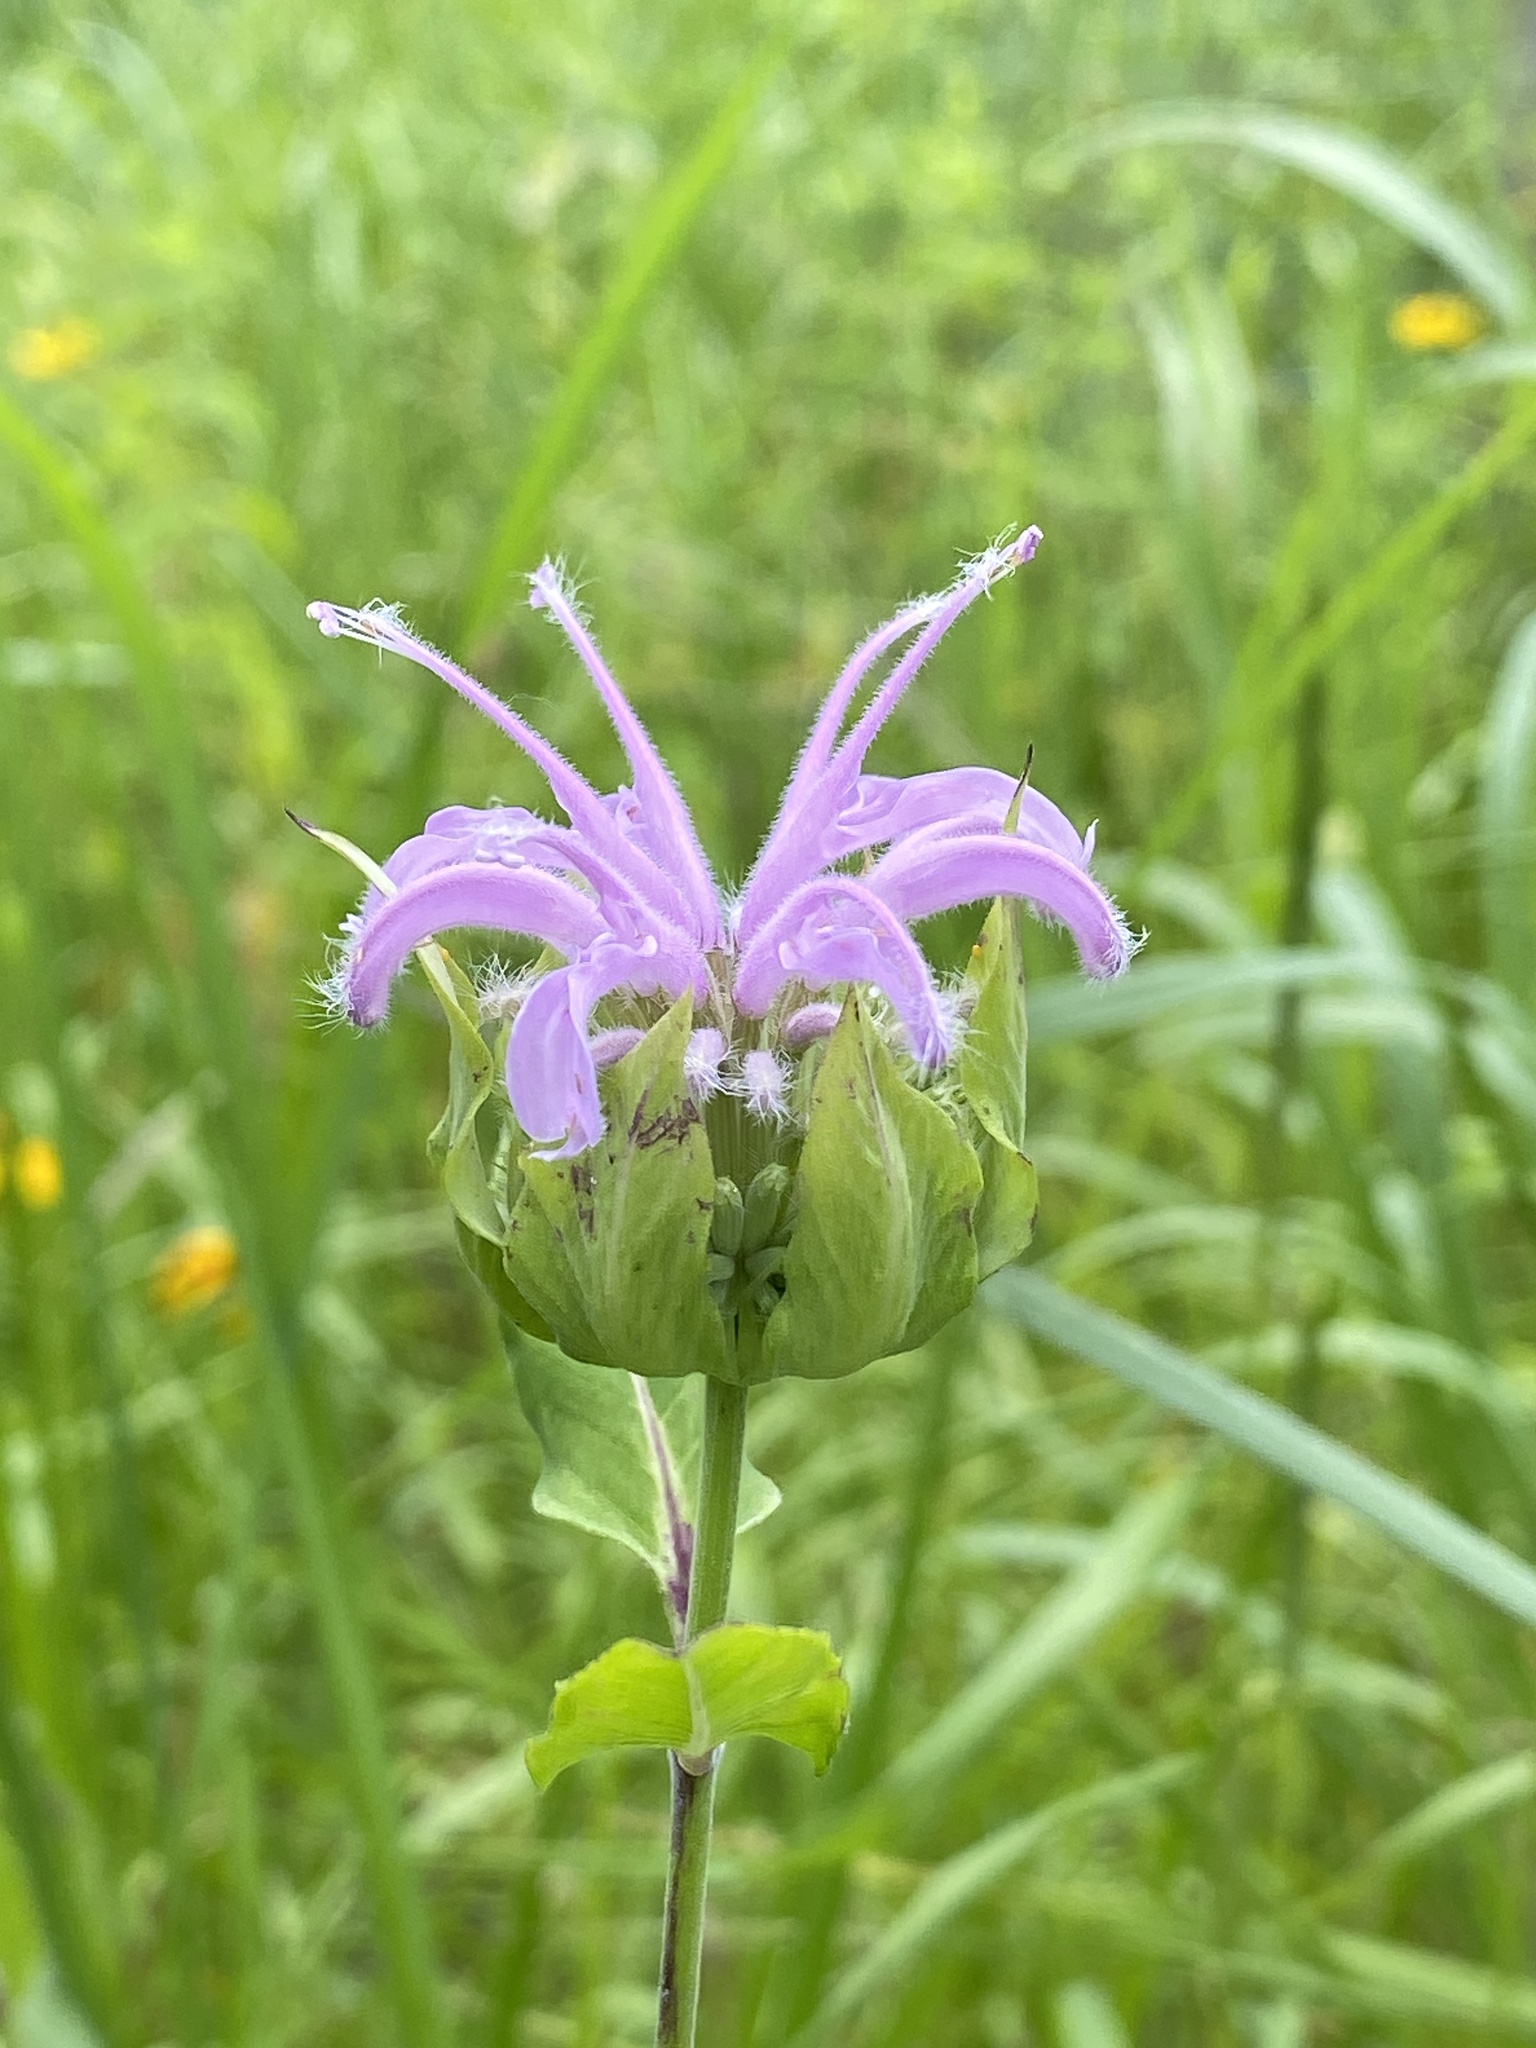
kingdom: Plantae
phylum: Tracheophyta
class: Magnoliopsida
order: Lamiales
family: Lamiaceae
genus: Monarda
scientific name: Monarda fistulosa
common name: Purple beebalm
